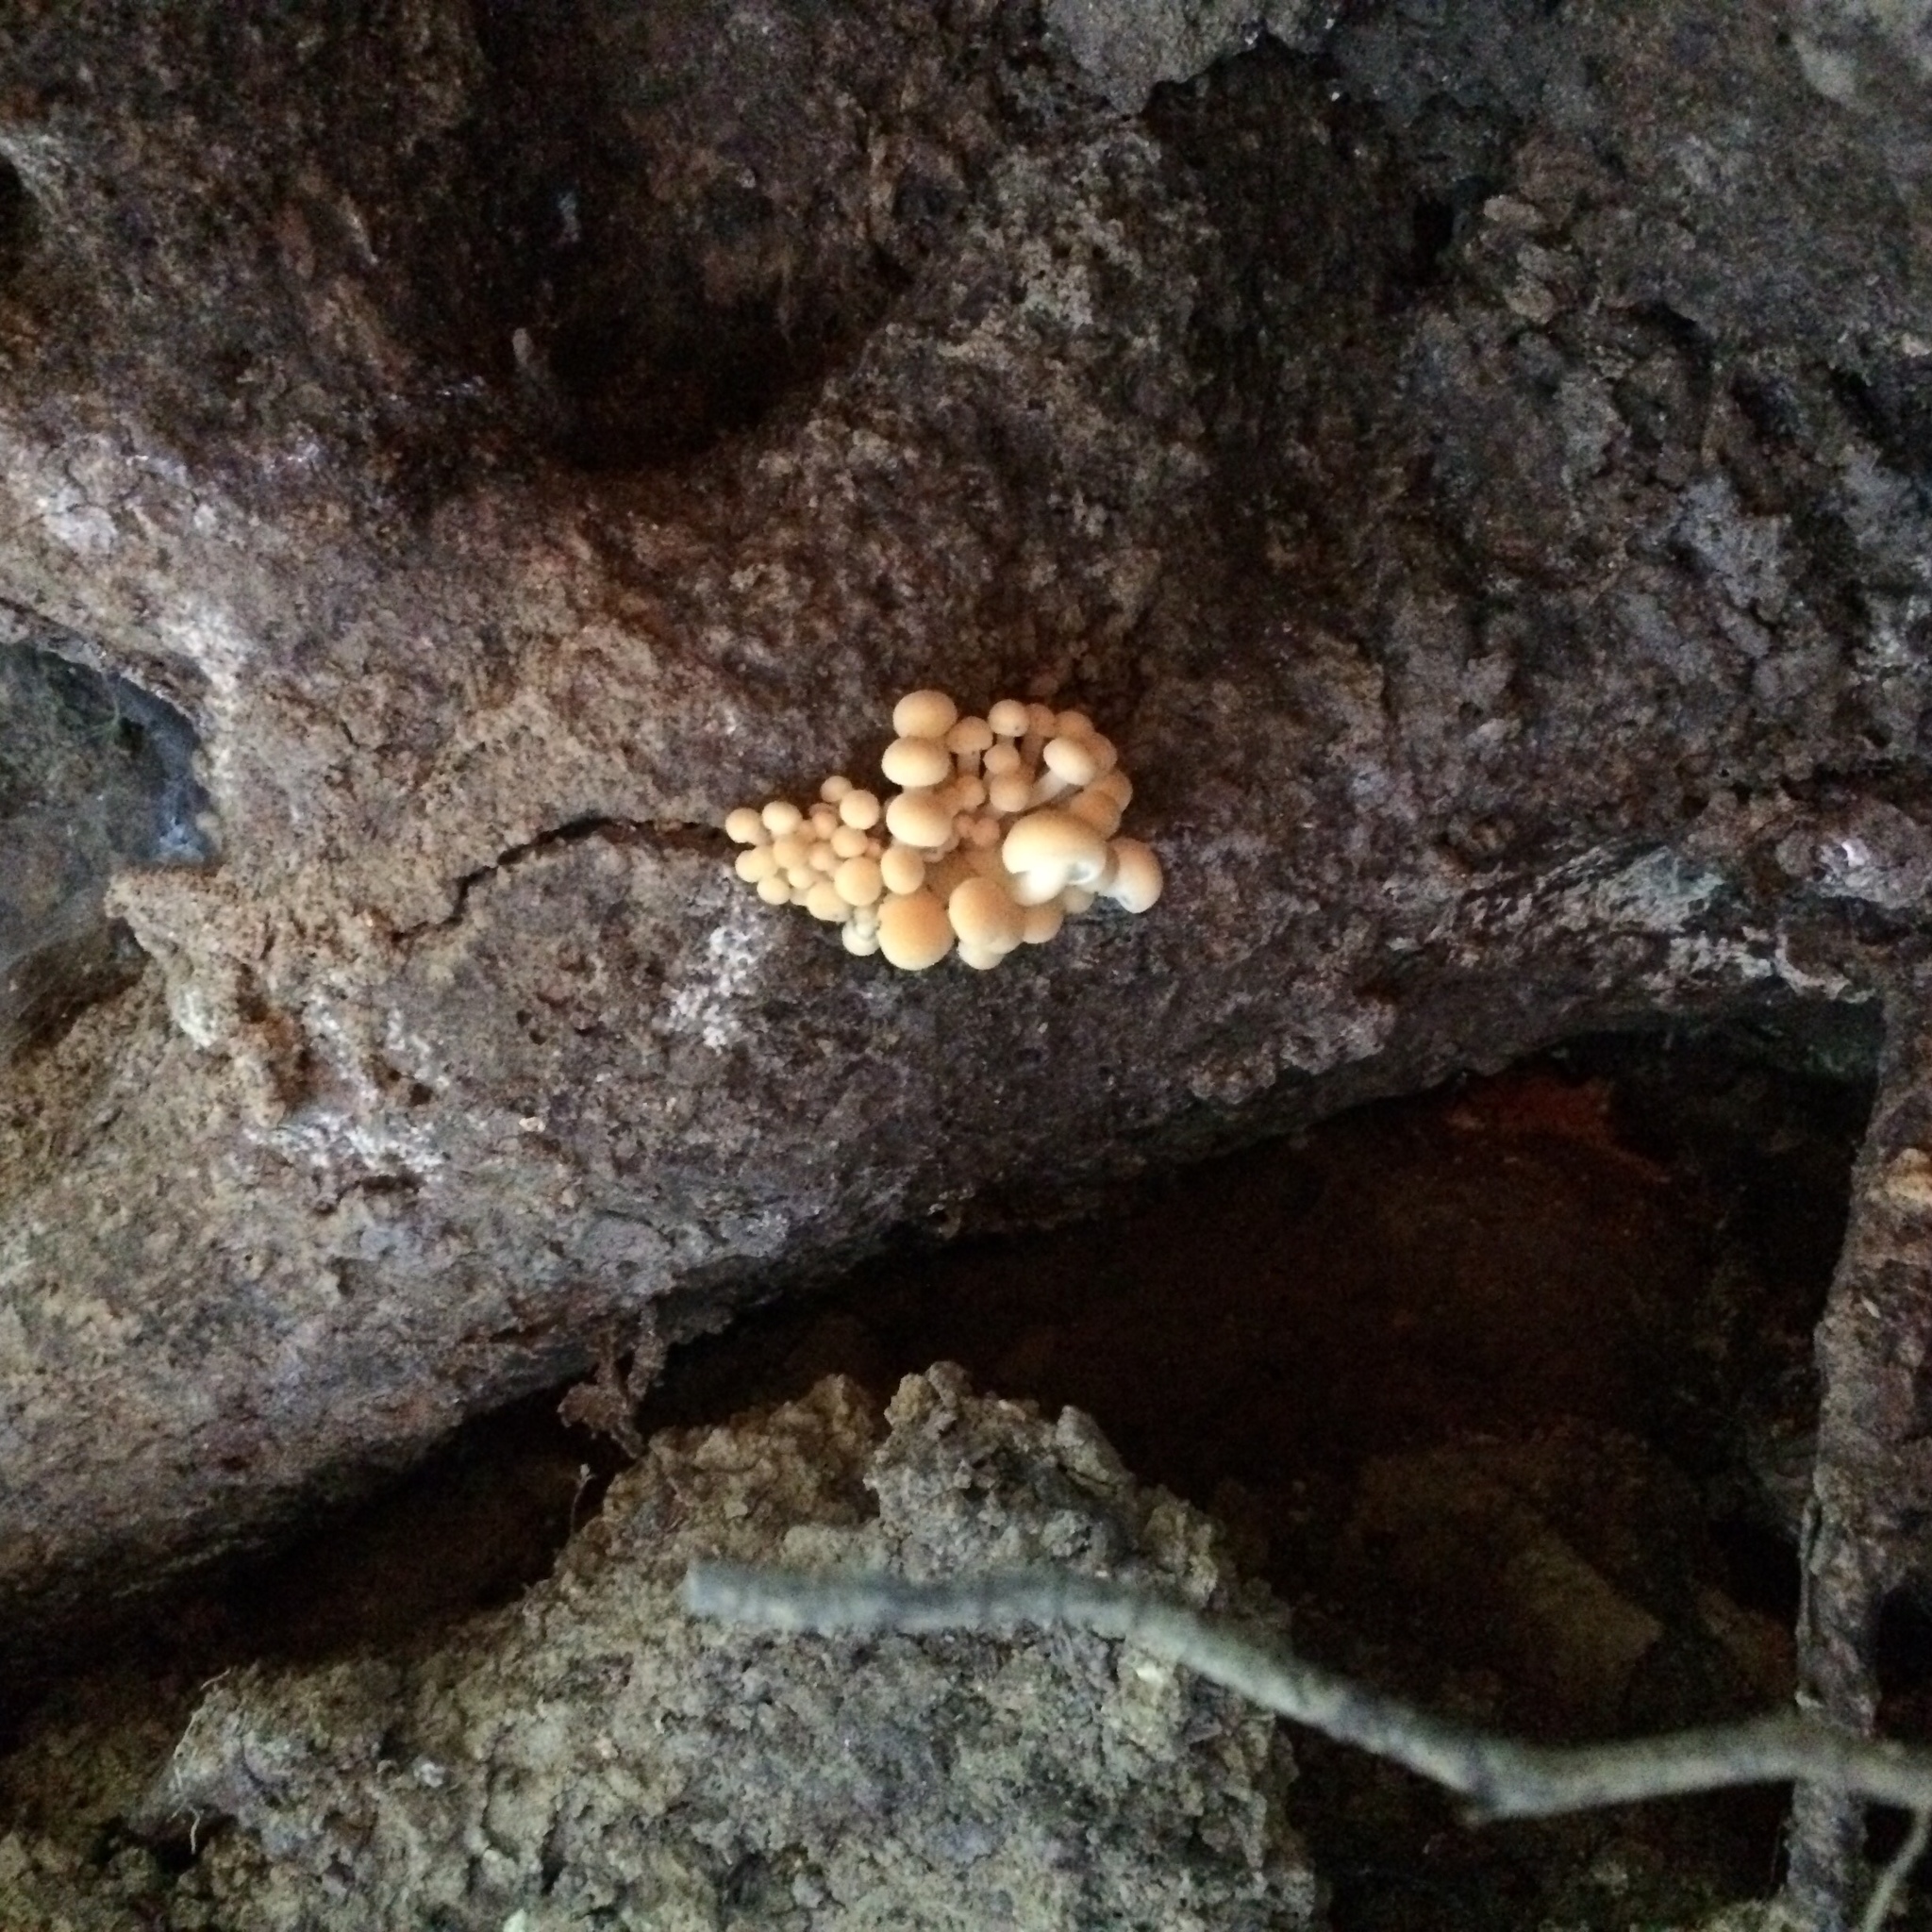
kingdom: Fungi
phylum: Basidiomycota
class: Agaricomycetes
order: Agaricales
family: Physalacriaceae
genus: Flammulina
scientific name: Flammulina velutipes
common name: Velvet shank
